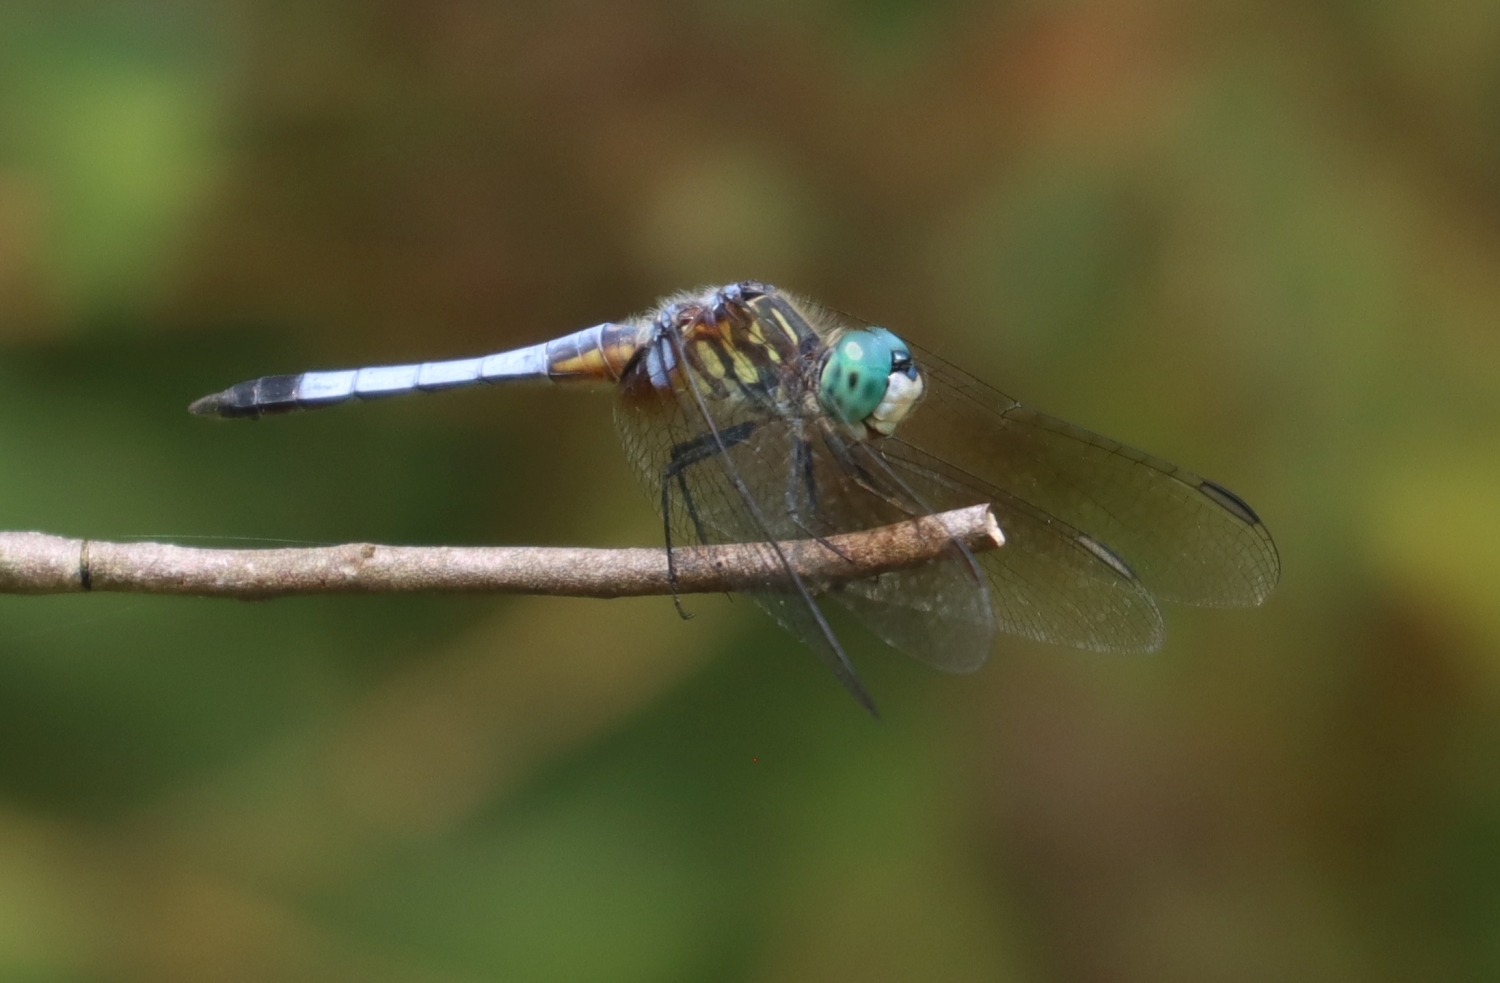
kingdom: Animalia
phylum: Arthropoda
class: Insecta
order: Odonata
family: Libellulidae
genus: Pachydiplax
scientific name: Pachydiplax longipennis
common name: Blue dasher
